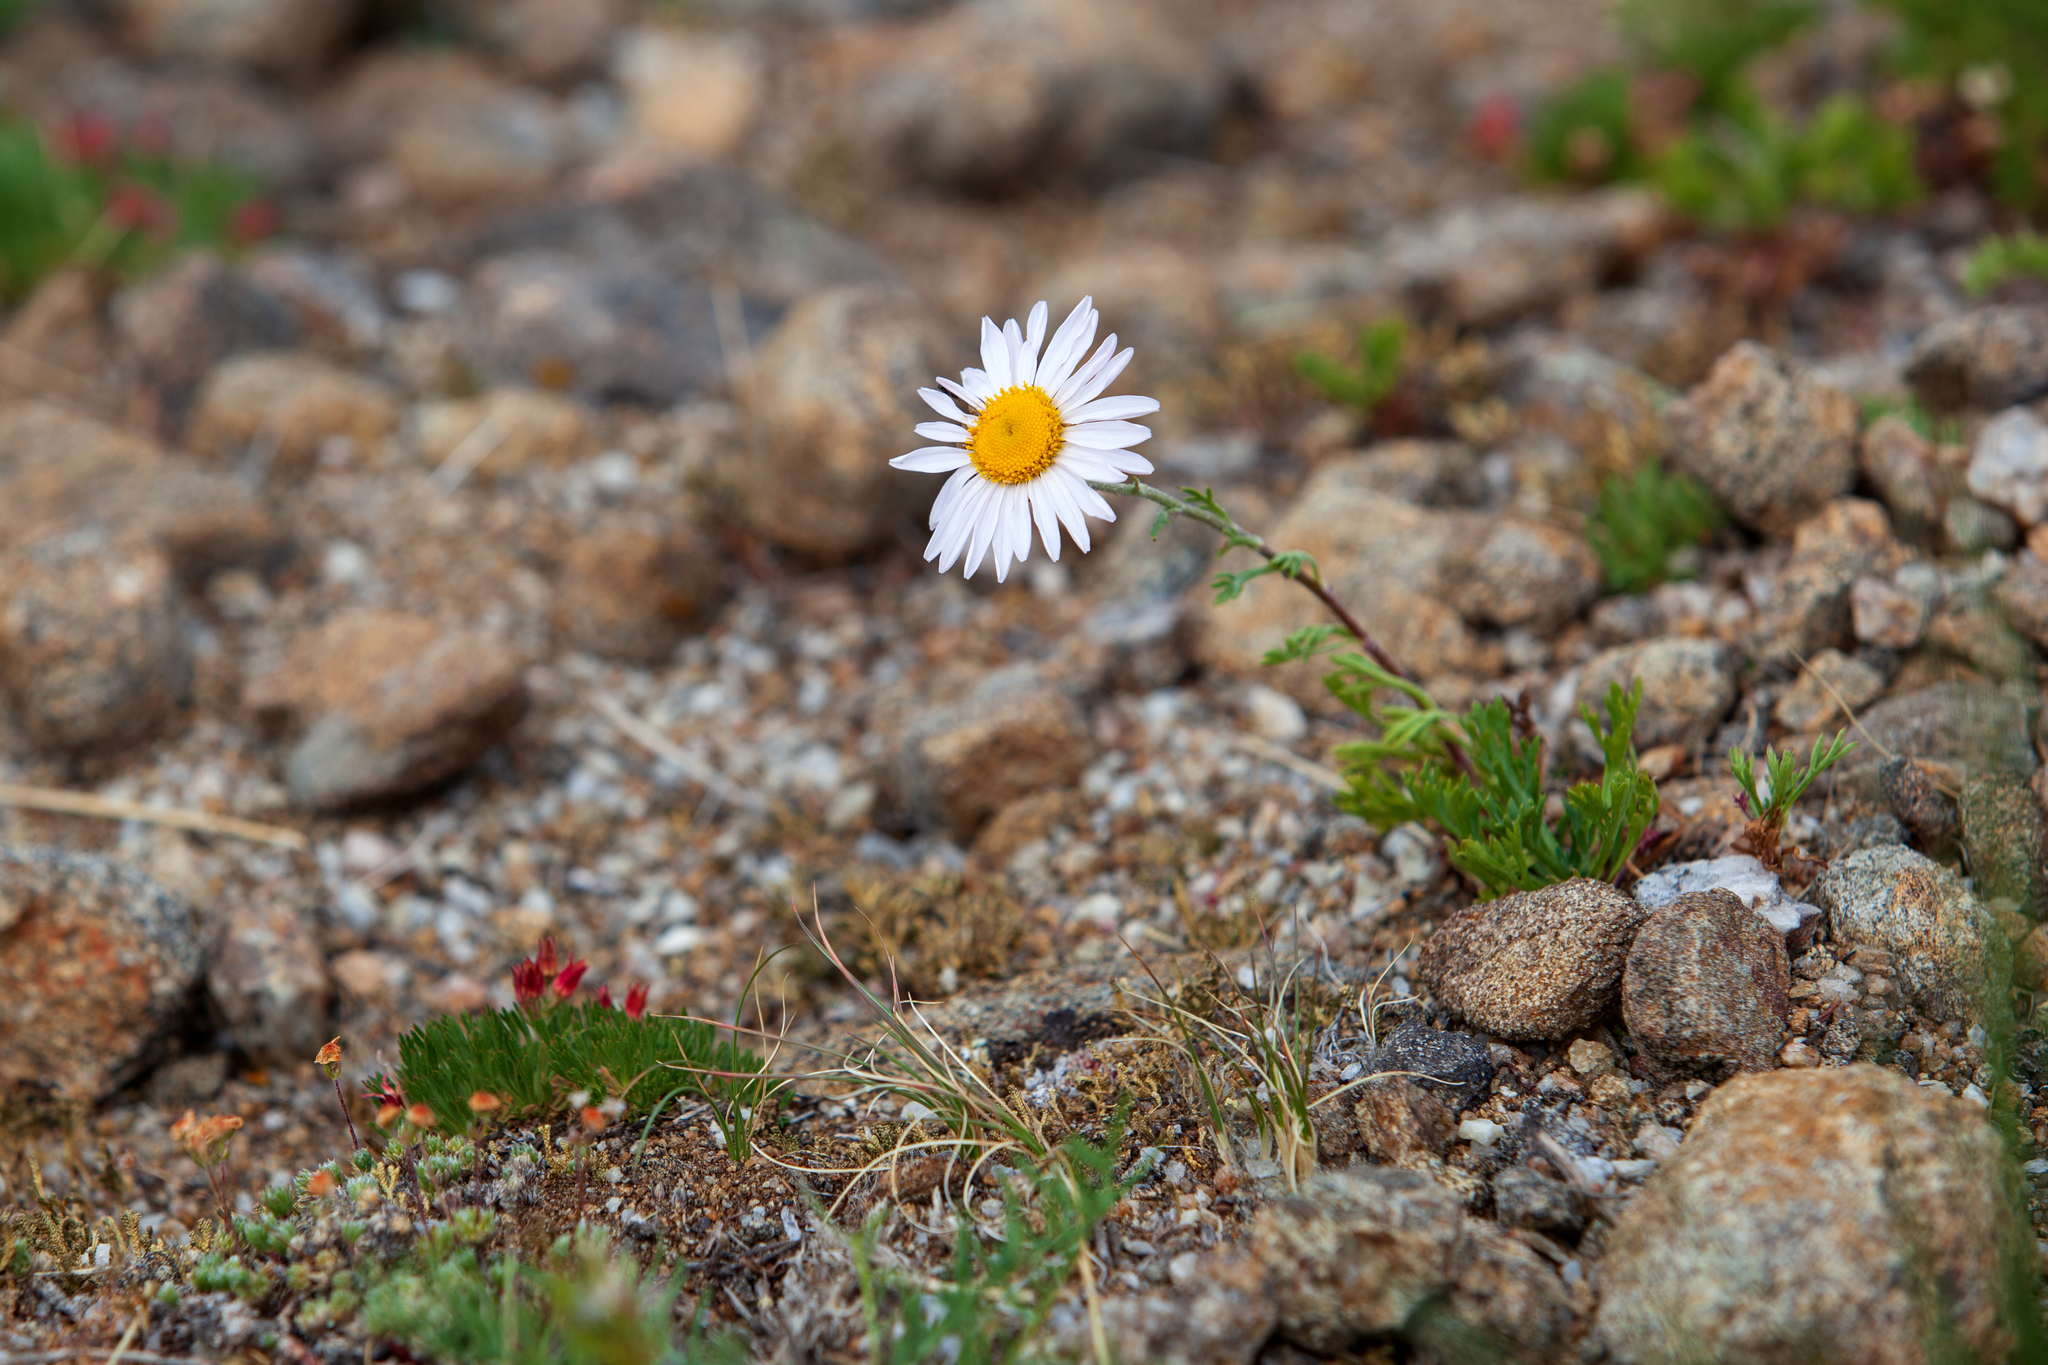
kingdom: Plantae
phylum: Tracheophyta
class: Magnoliopsida
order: Asterales
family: Asteraceae
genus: Chrysanthemum
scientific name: Chrysanthemum zawadzkii
